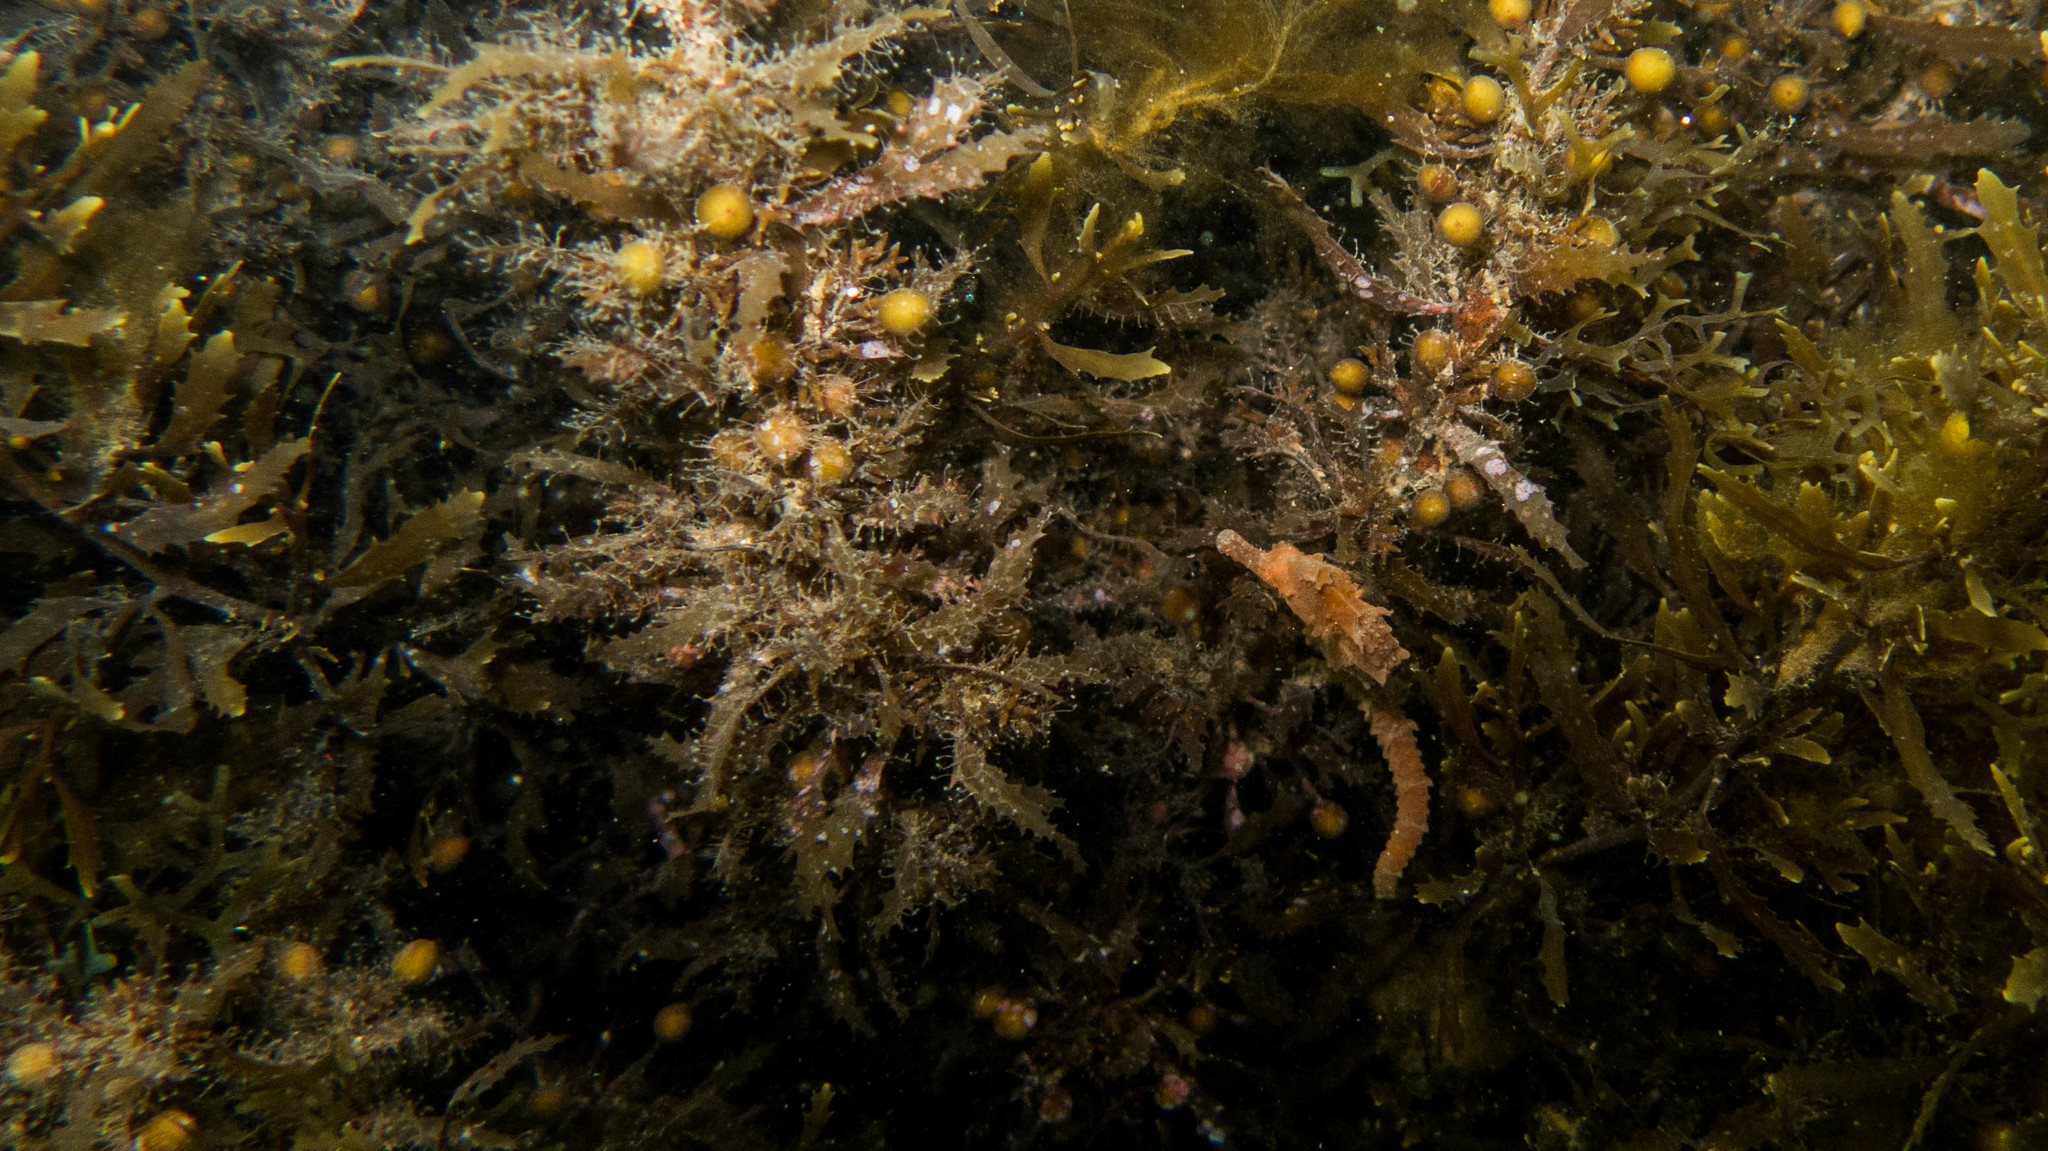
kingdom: Animalia
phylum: Chordata
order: Syngnathiformes
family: Syngnathidae
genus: Hippocampus
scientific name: Hippocampus erectus
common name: Lined seahorse
